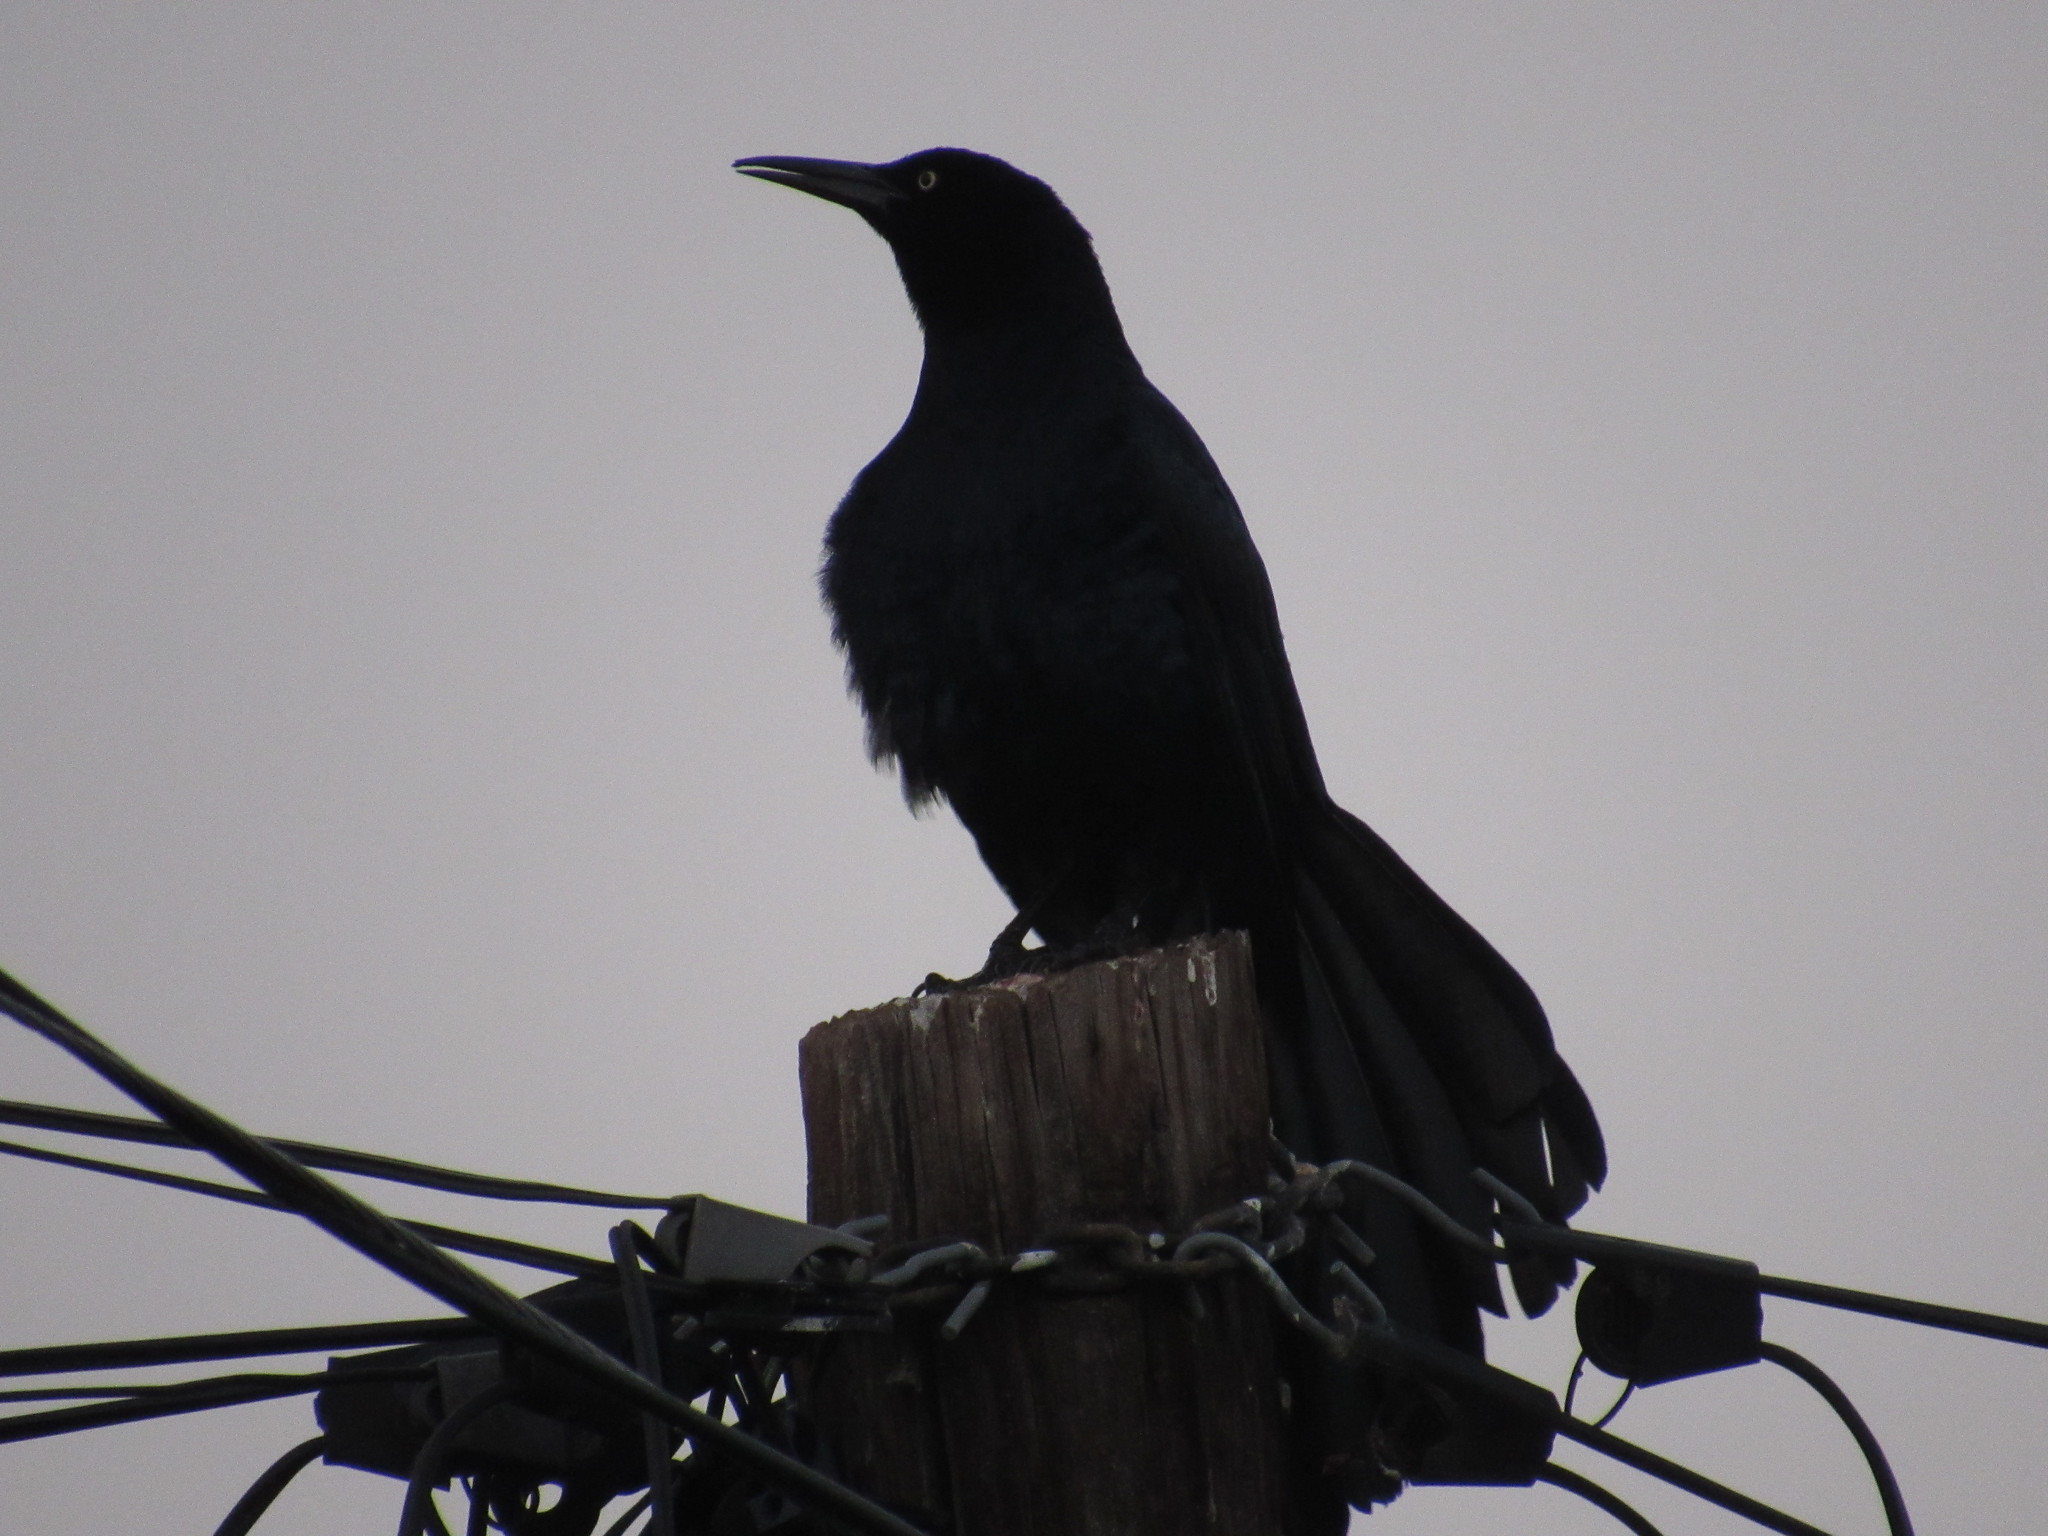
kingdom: Animalia
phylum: Chordata
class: Aves
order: Passeriformes
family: Icteridae
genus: Quiscalus
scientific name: Quiscalus mexicanus
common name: Great-tailed grackle
